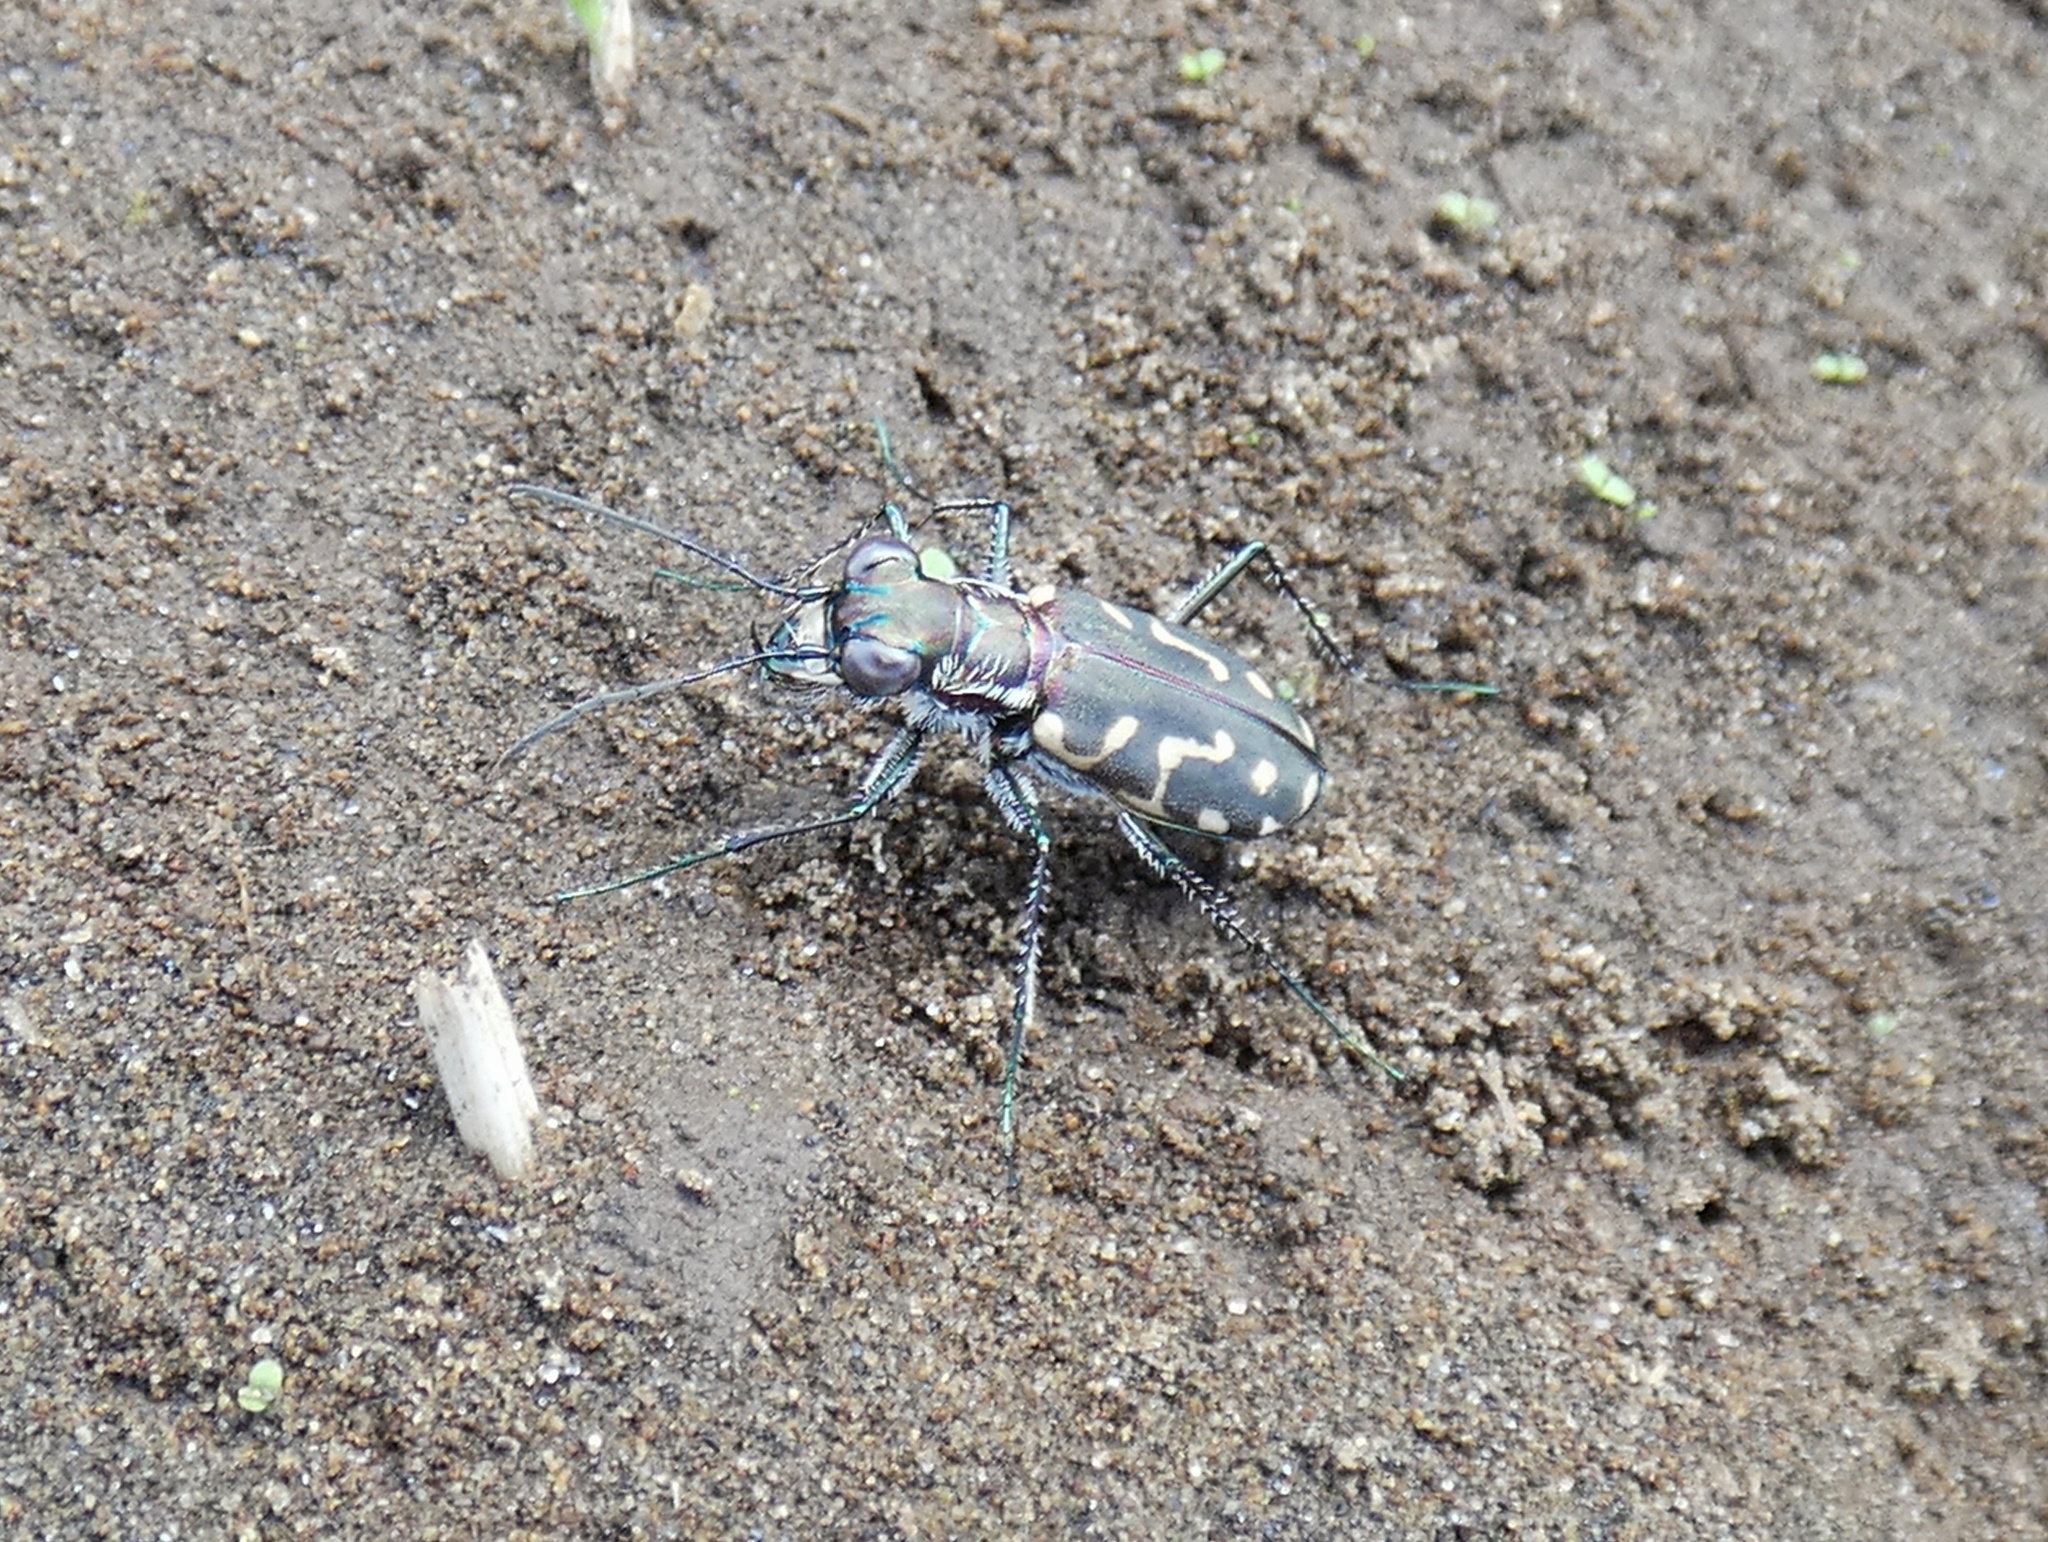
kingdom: Animalia
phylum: Arthropoda
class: Insecta
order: Coleoptera
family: Carabidae
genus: Cicindela
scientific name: Cicindela carthagena
